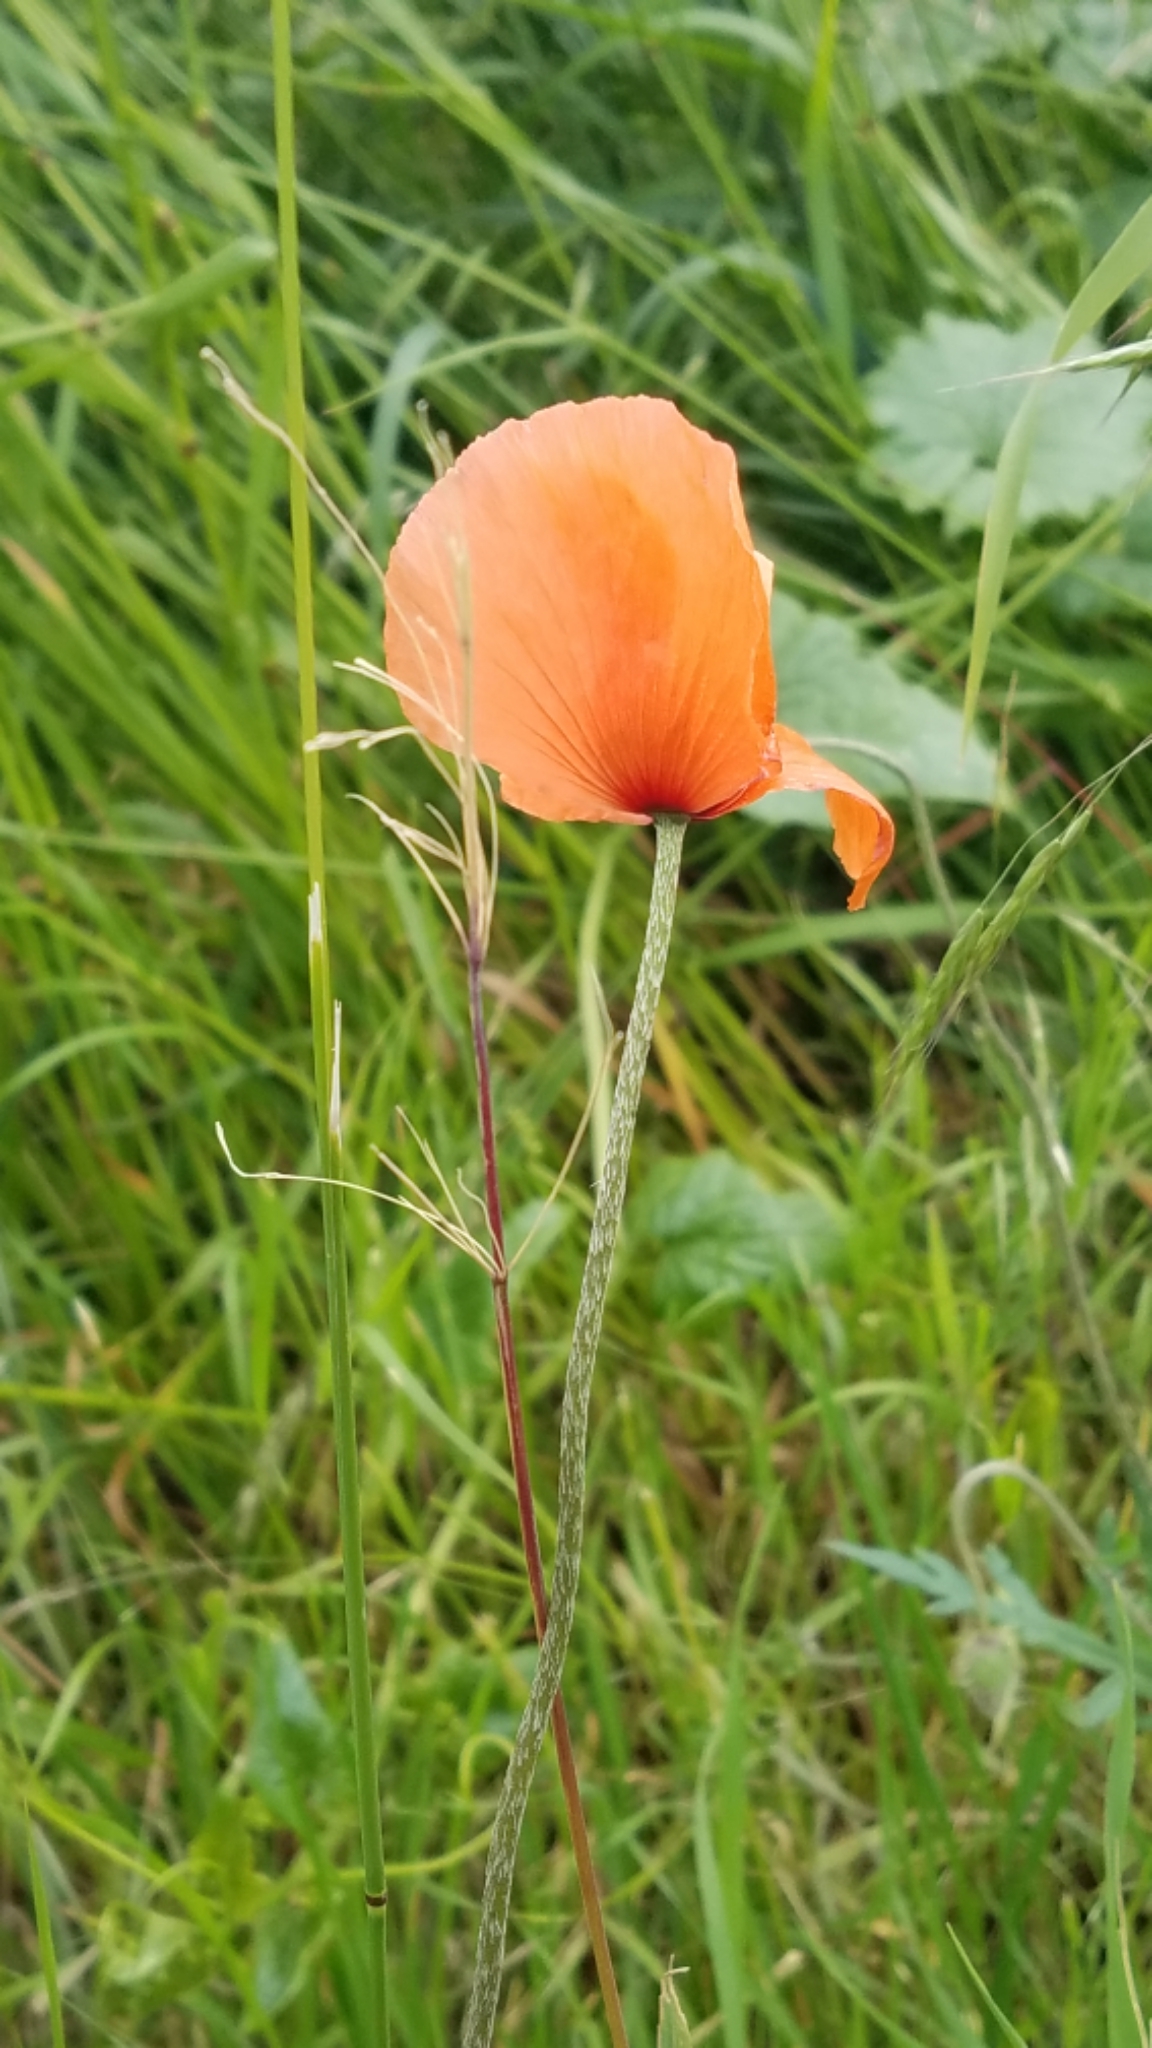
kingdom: Plantae
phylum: Tracheophyta
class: Magnoliopsida
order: Ranunculales
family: Papaveraceae
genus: Eschscholzia
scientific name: Eschscholzia californica
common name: California poppy
